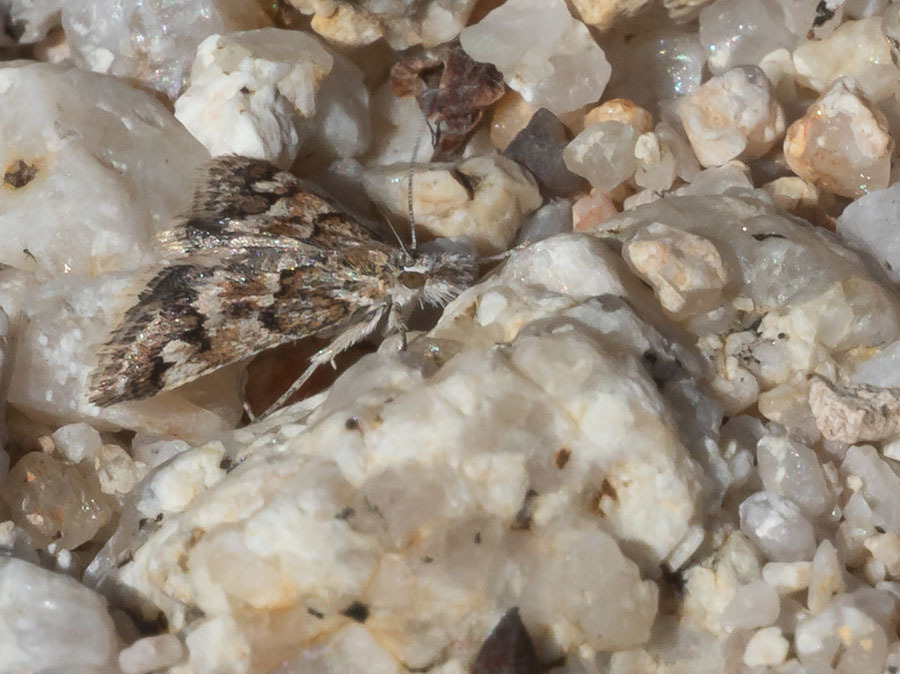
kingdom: Animalia
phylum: Arthropoda
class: Insecta
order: Lepidoptera
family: Crambidae
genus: Psammobotys
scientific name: Psammobotys fordi
